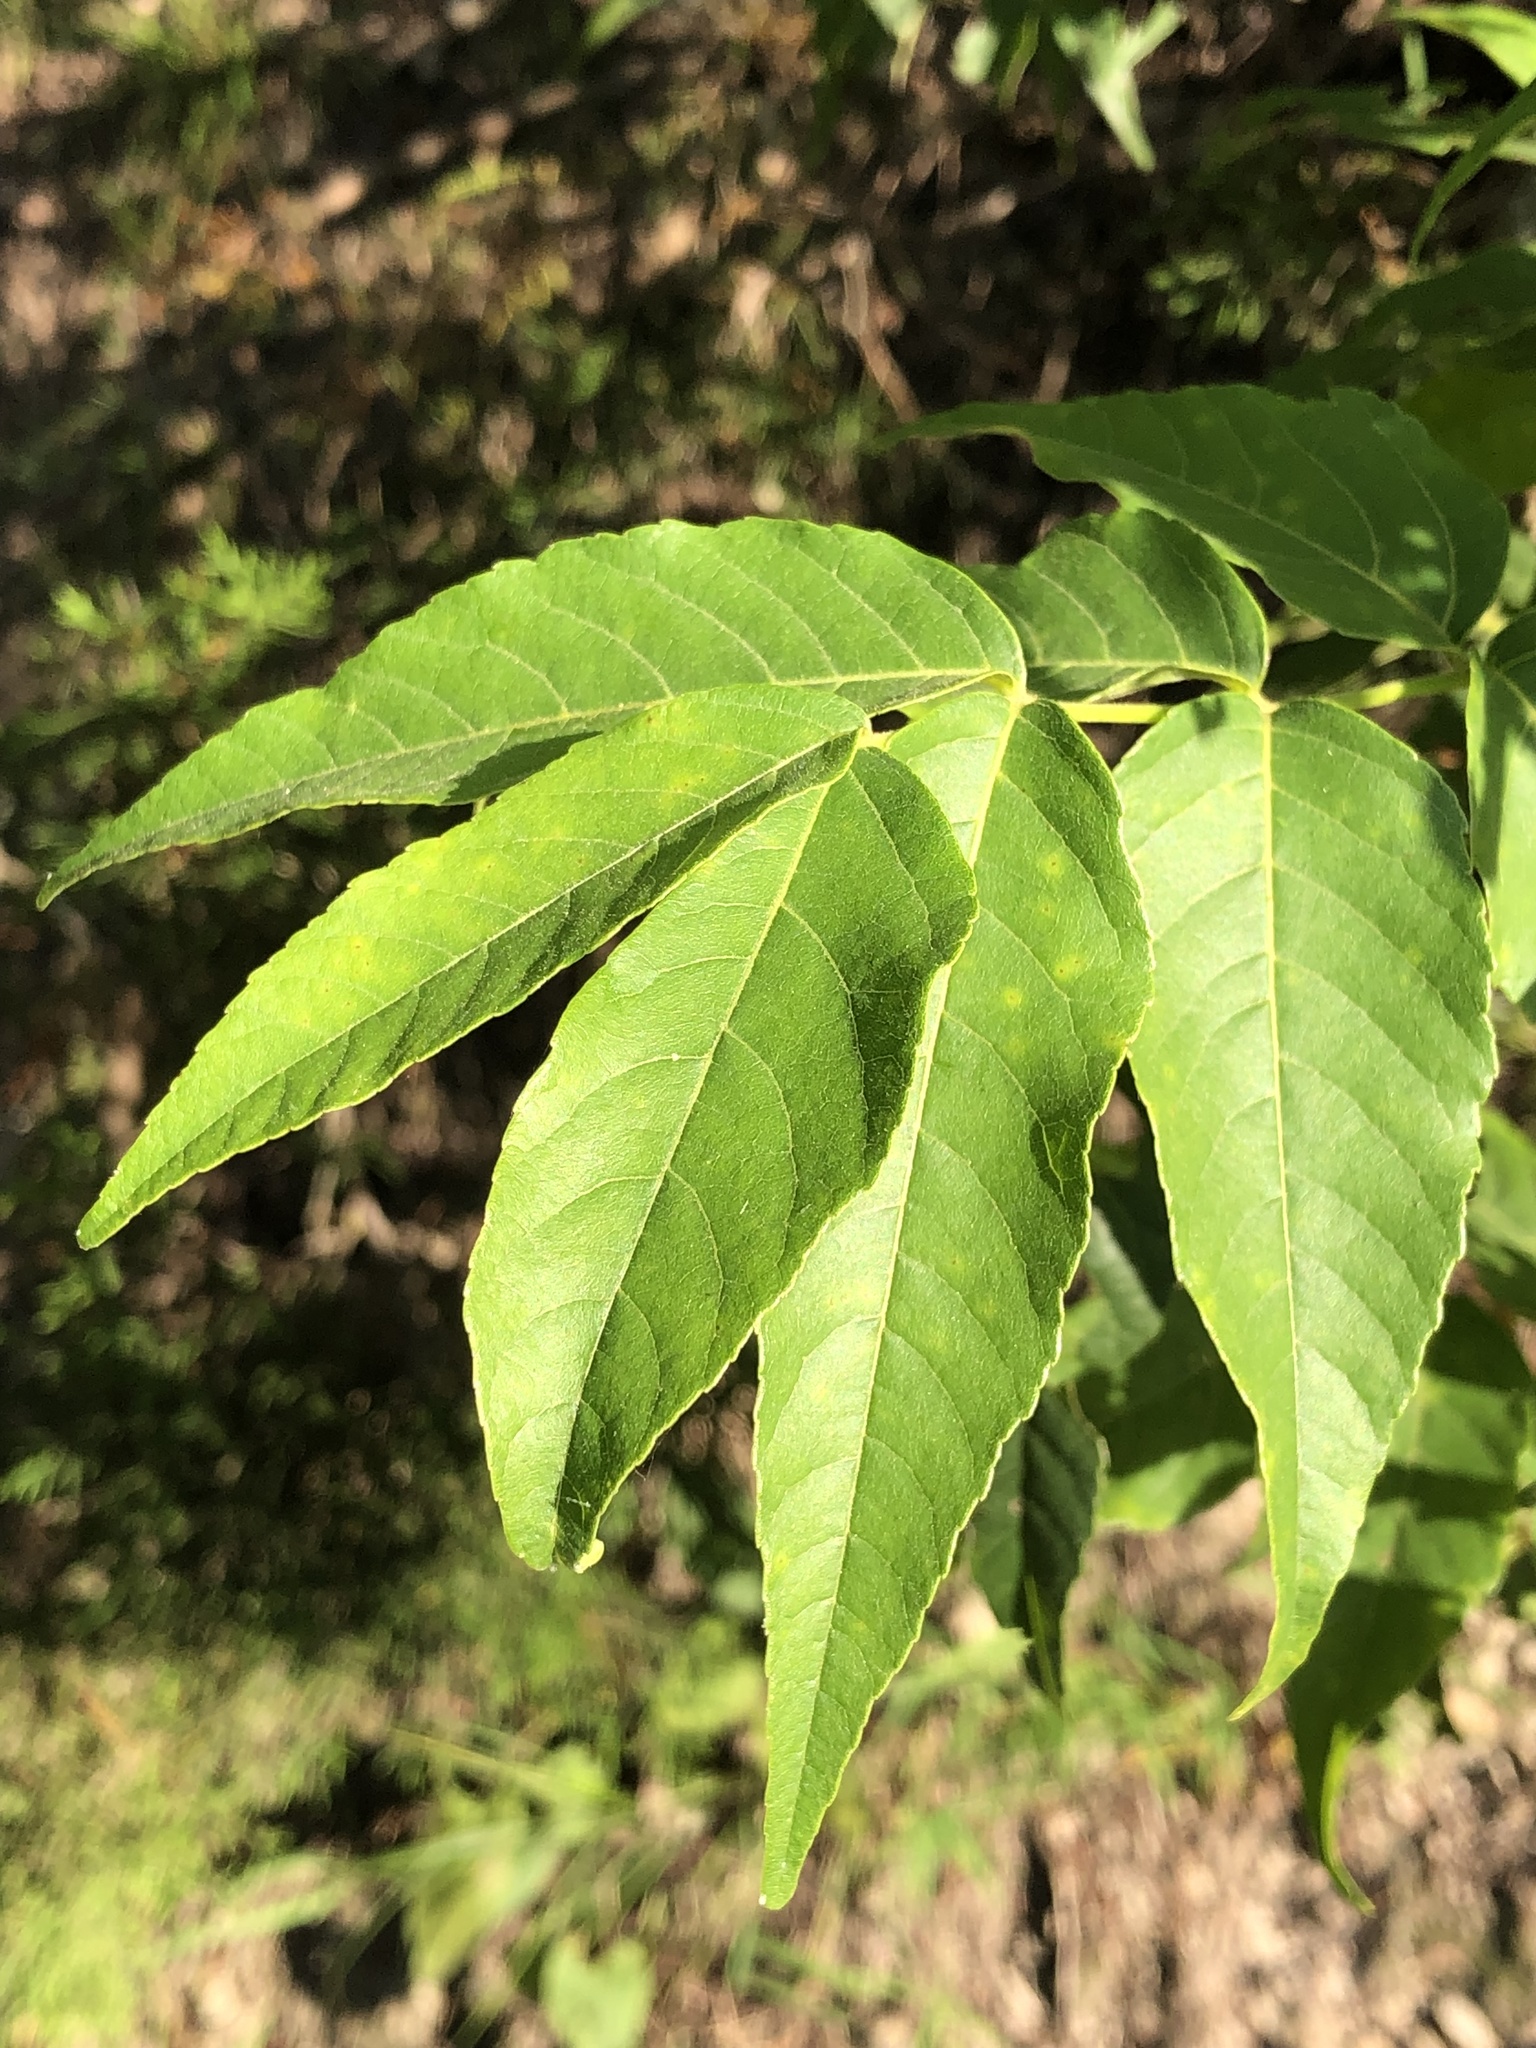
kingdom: Plantae
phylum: Tracheophyta
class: Magnoliopsida
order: Sapindales
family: Sapindaceae
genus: Ungnadia
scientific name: Ungnadia speciosa
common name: Texas-buckeye
